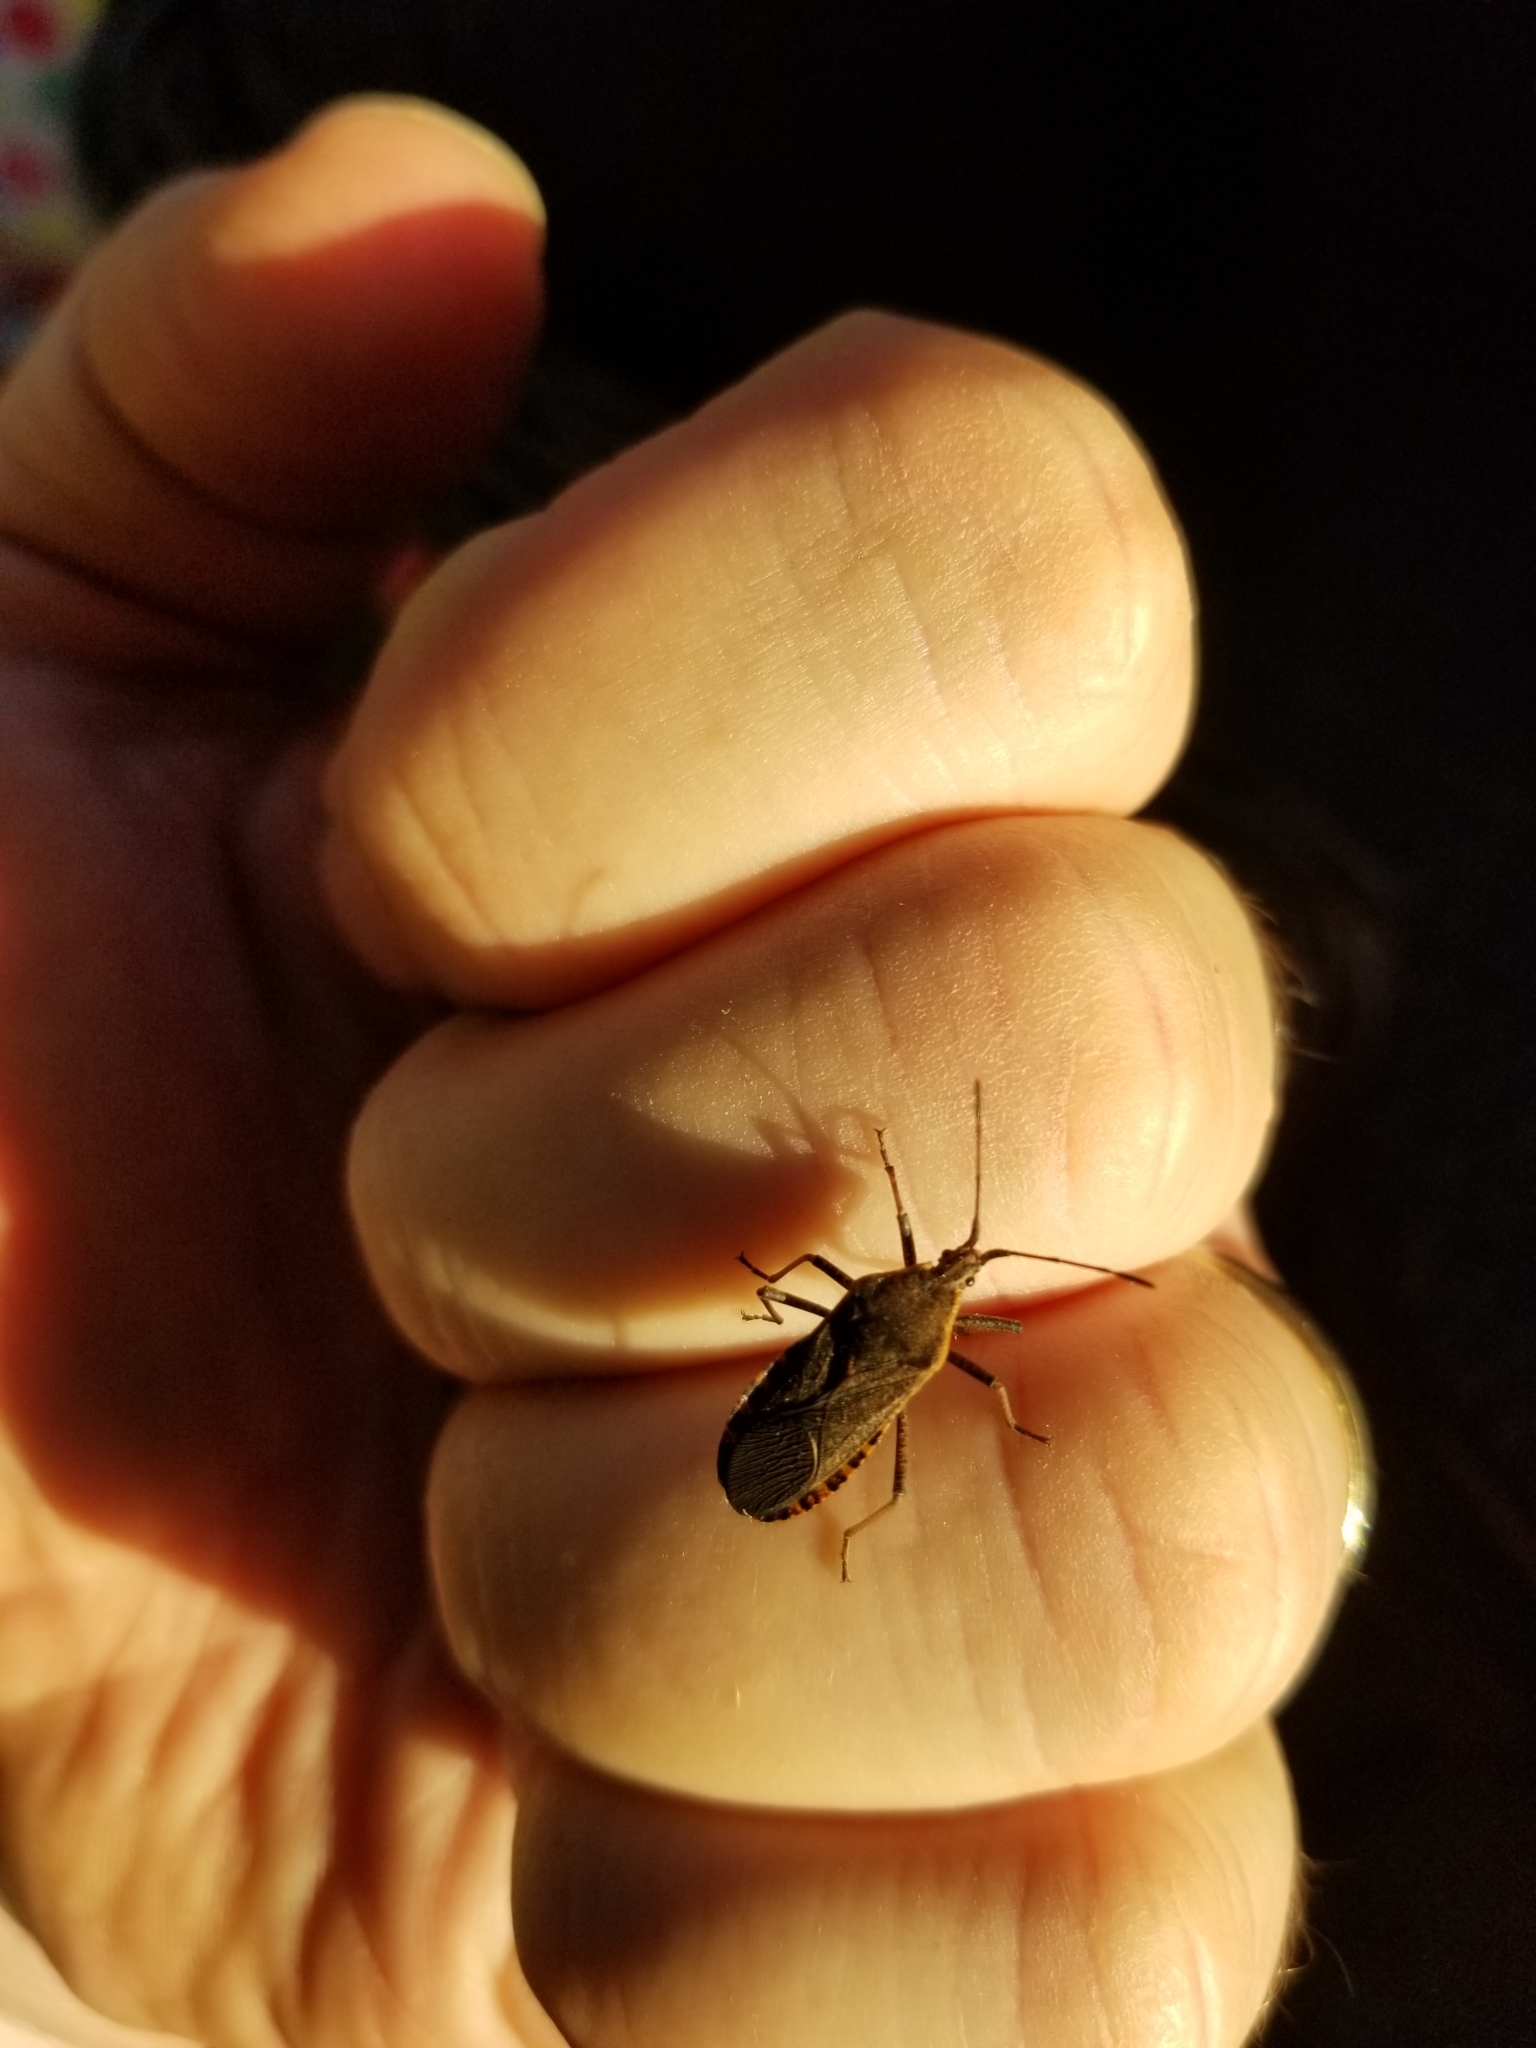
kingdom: Animalia
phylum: Arthropoda
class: Insecta
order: Hemiptera
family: Coreidae
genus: Anasa
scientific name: Anasa tristis
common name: Squash bug
